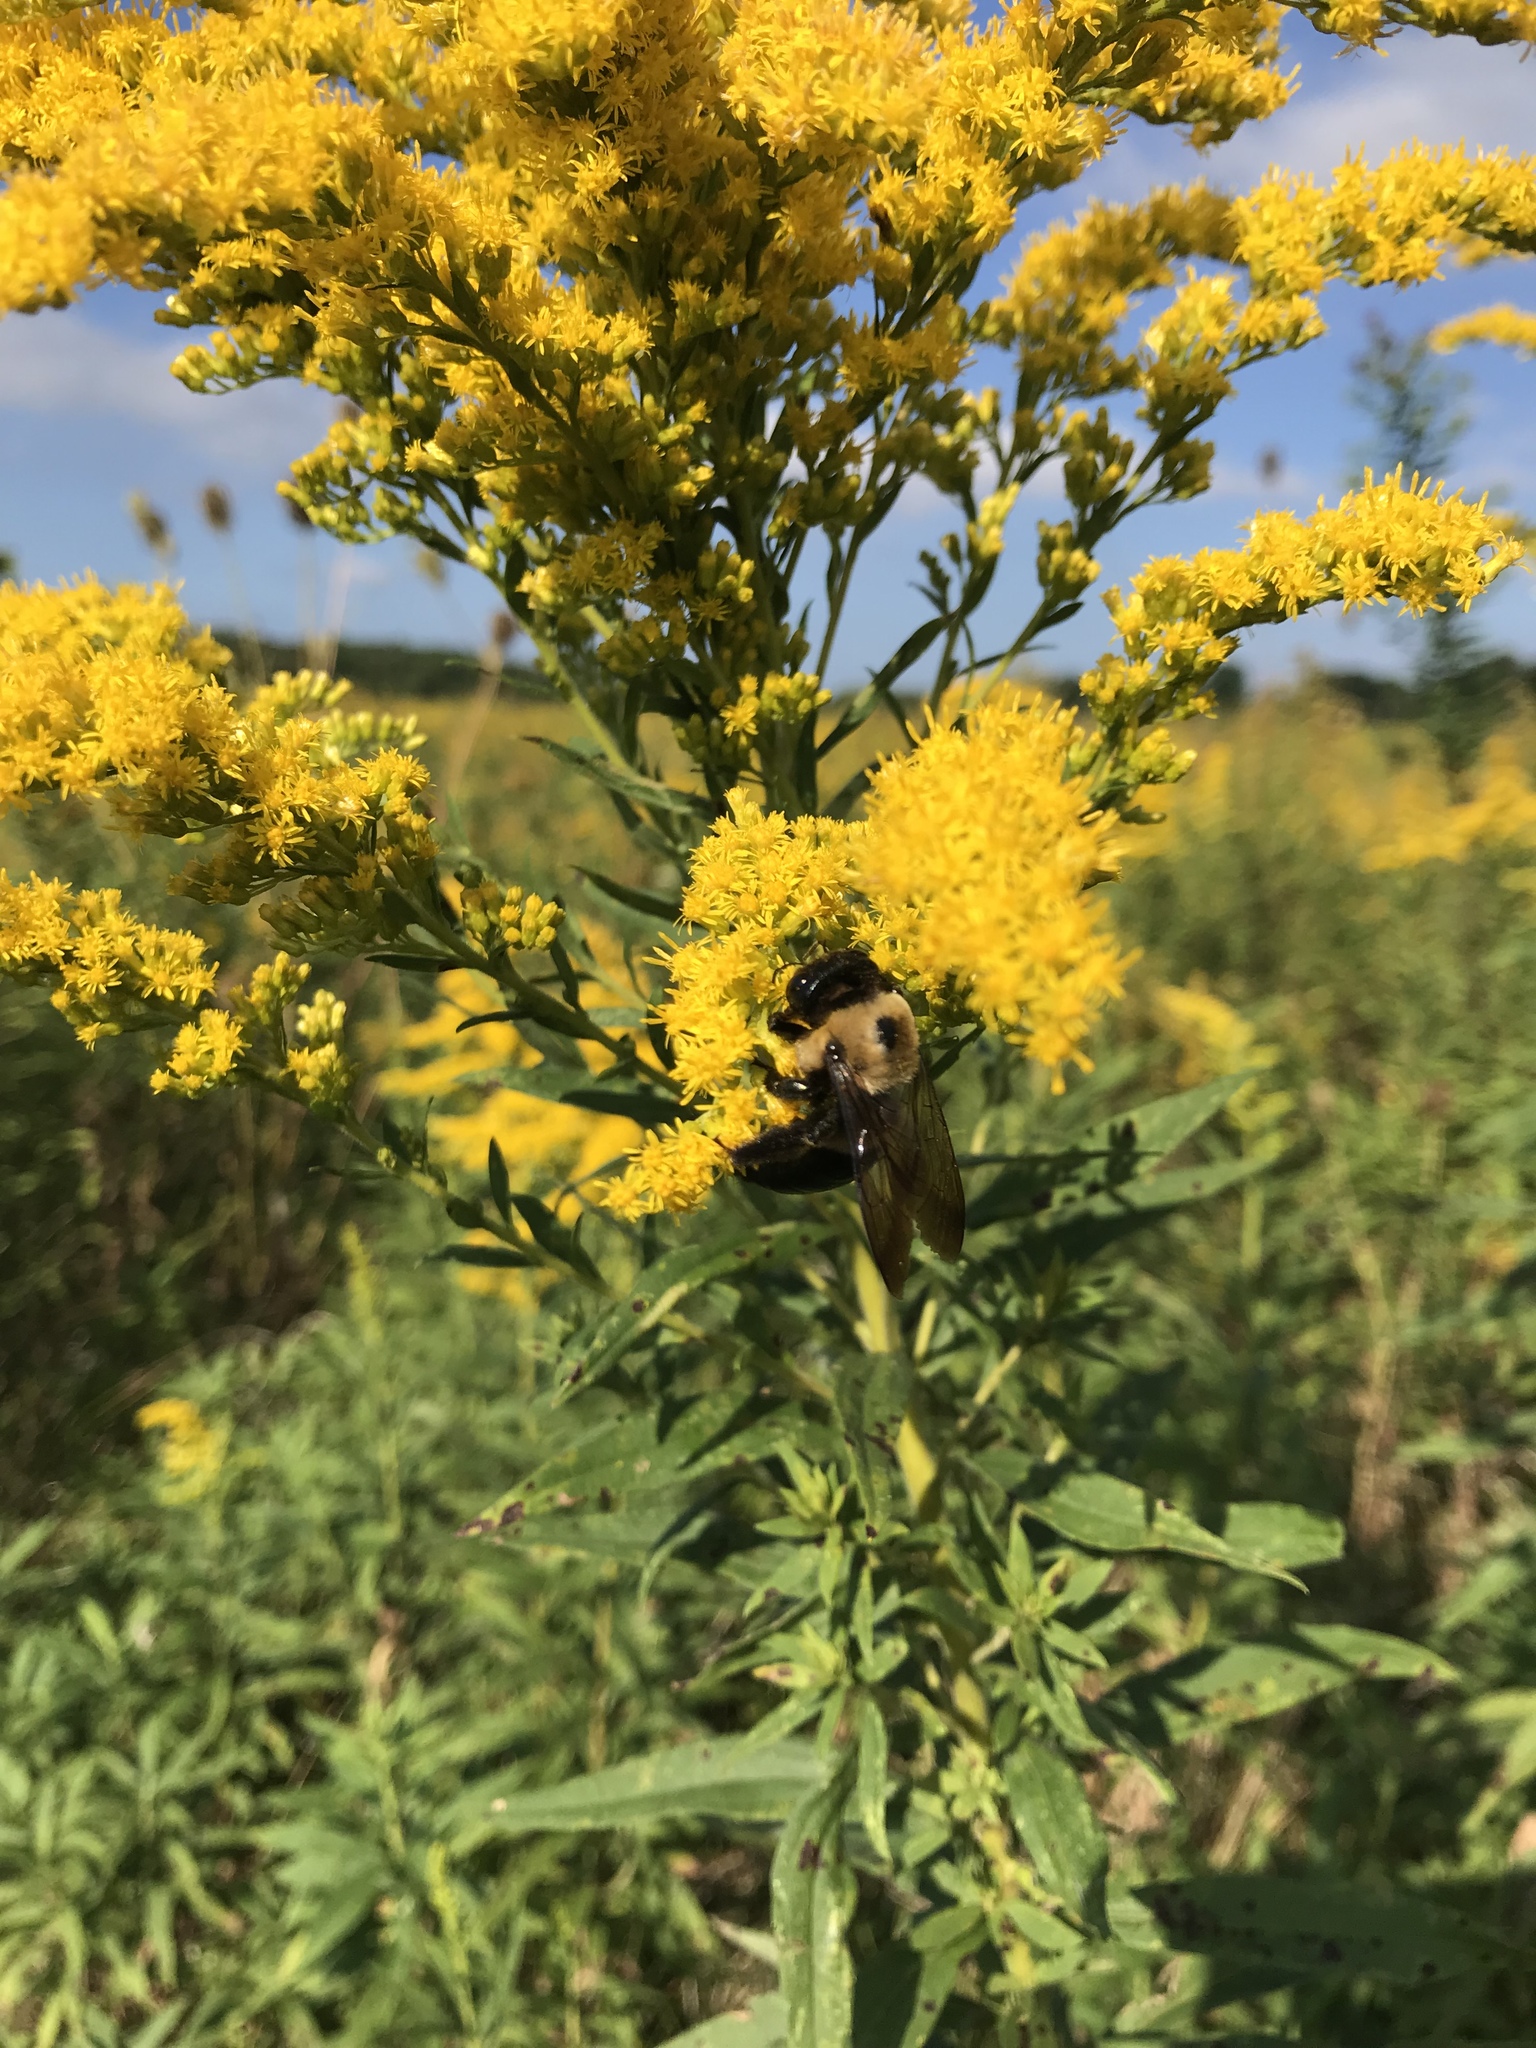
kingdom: Animalia
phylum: Arthropoda
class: Insecta
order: Hymenoptera
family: Apidae
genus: Xylocopa
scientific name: Xylocopa virginica
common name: Carpenter bee
